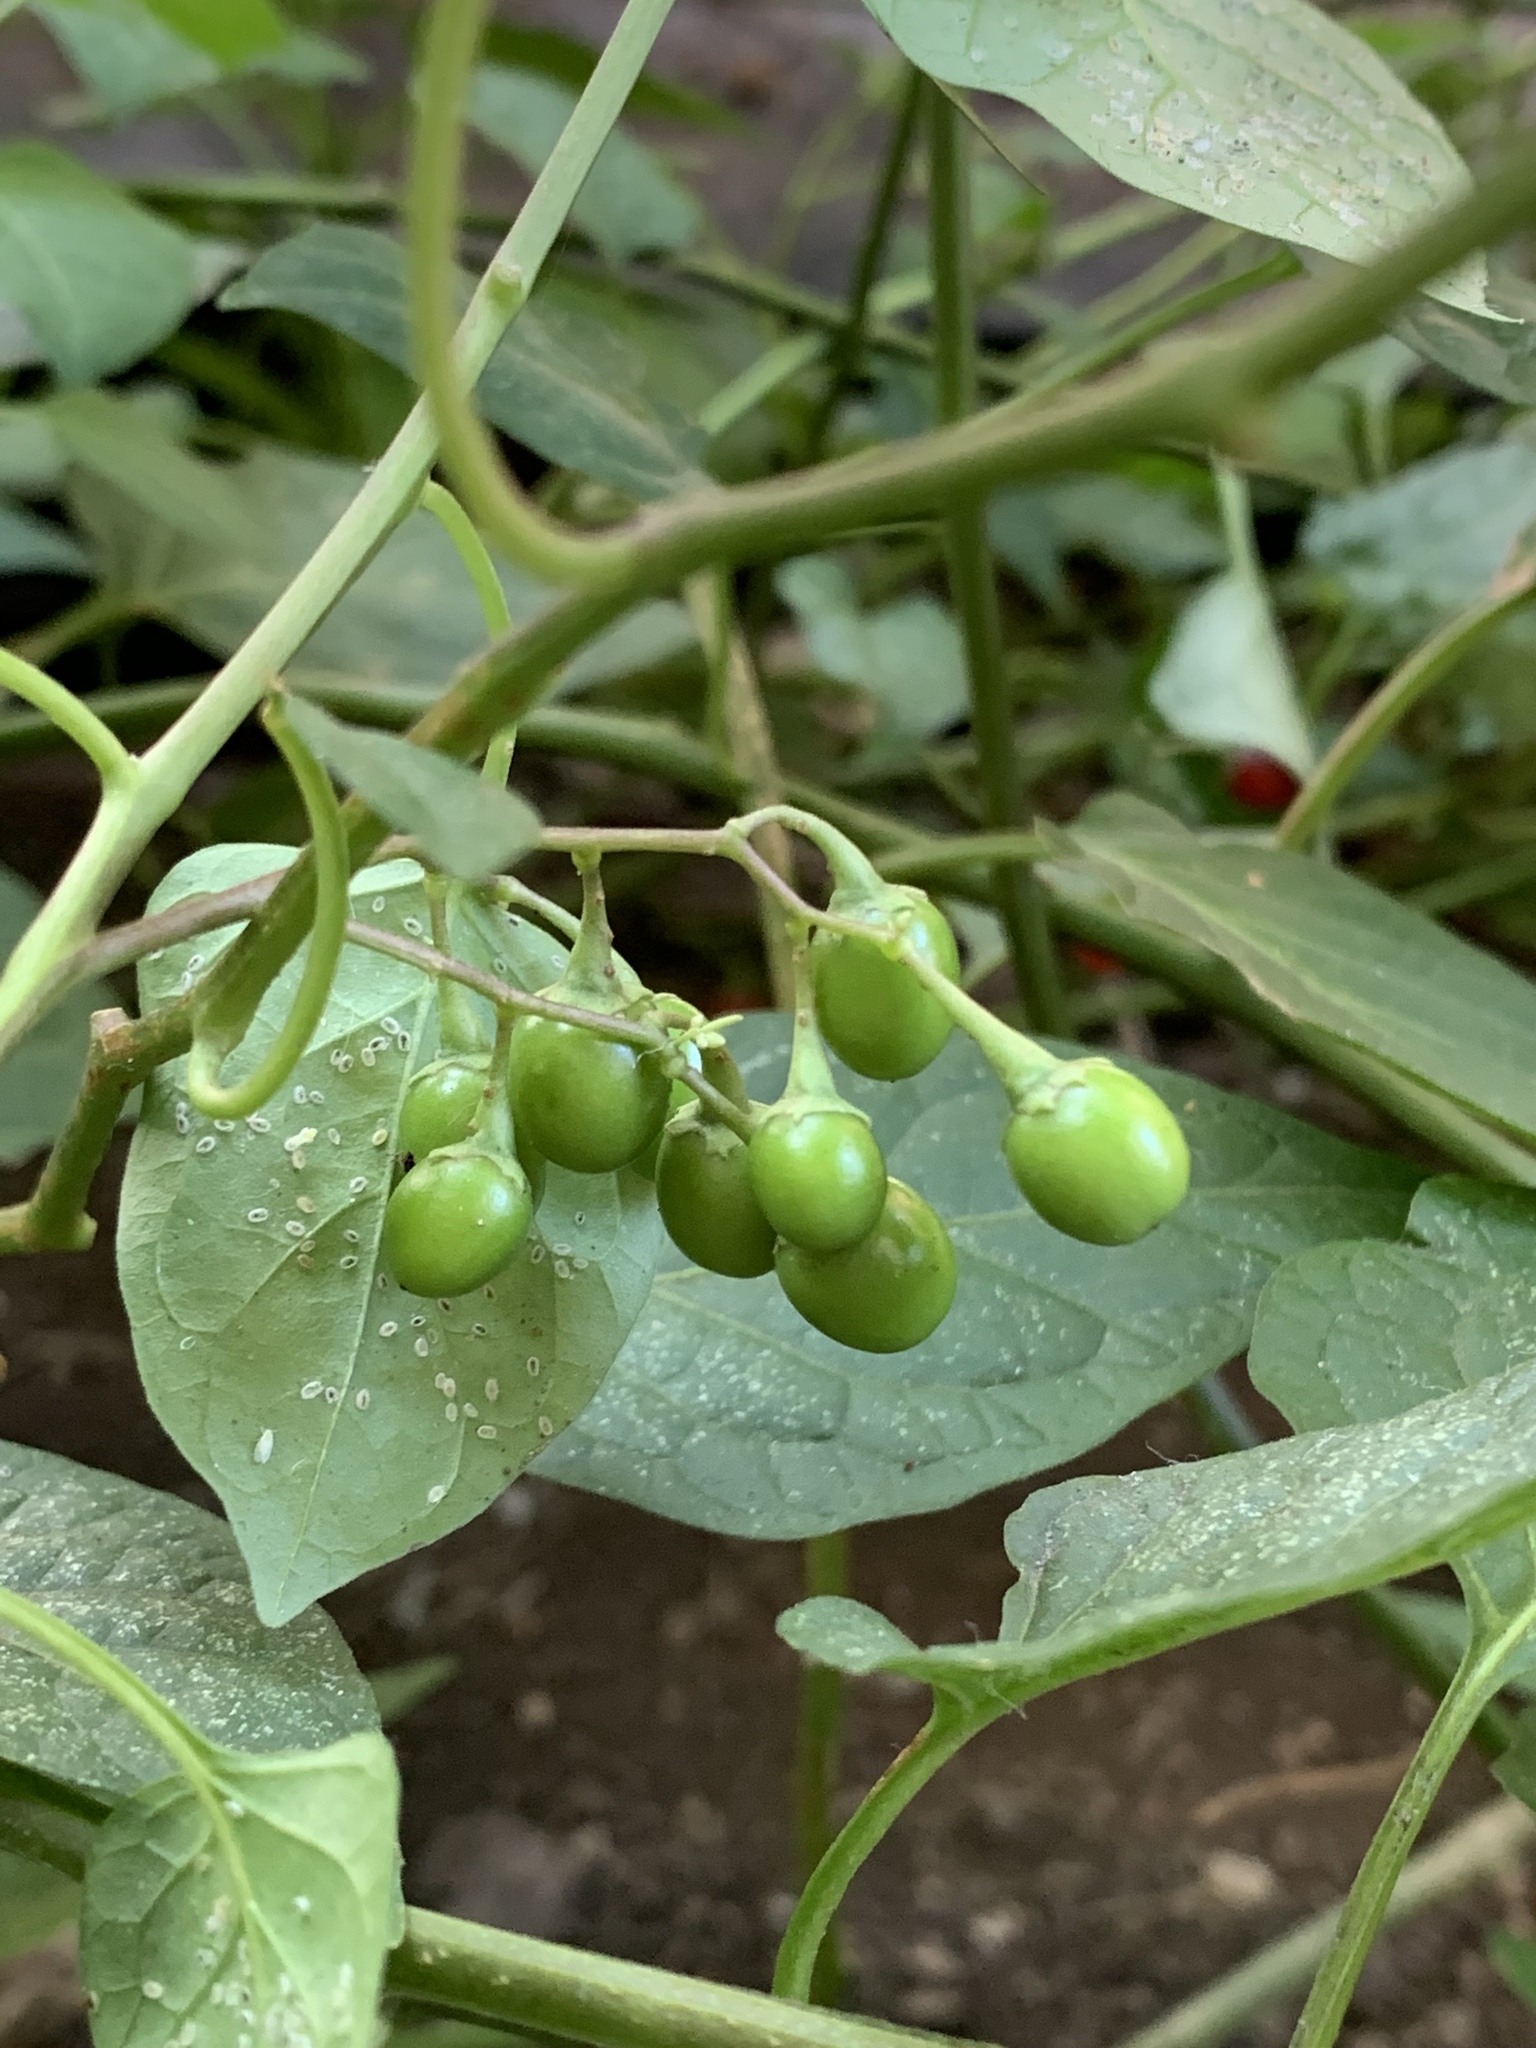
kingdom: Plantae
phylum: Tracheophyta
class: Magnoliopsida
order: Solanales
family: Solanaceae
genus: Solanum
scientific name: Solanum dulcamara
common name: Climbing nightshade
